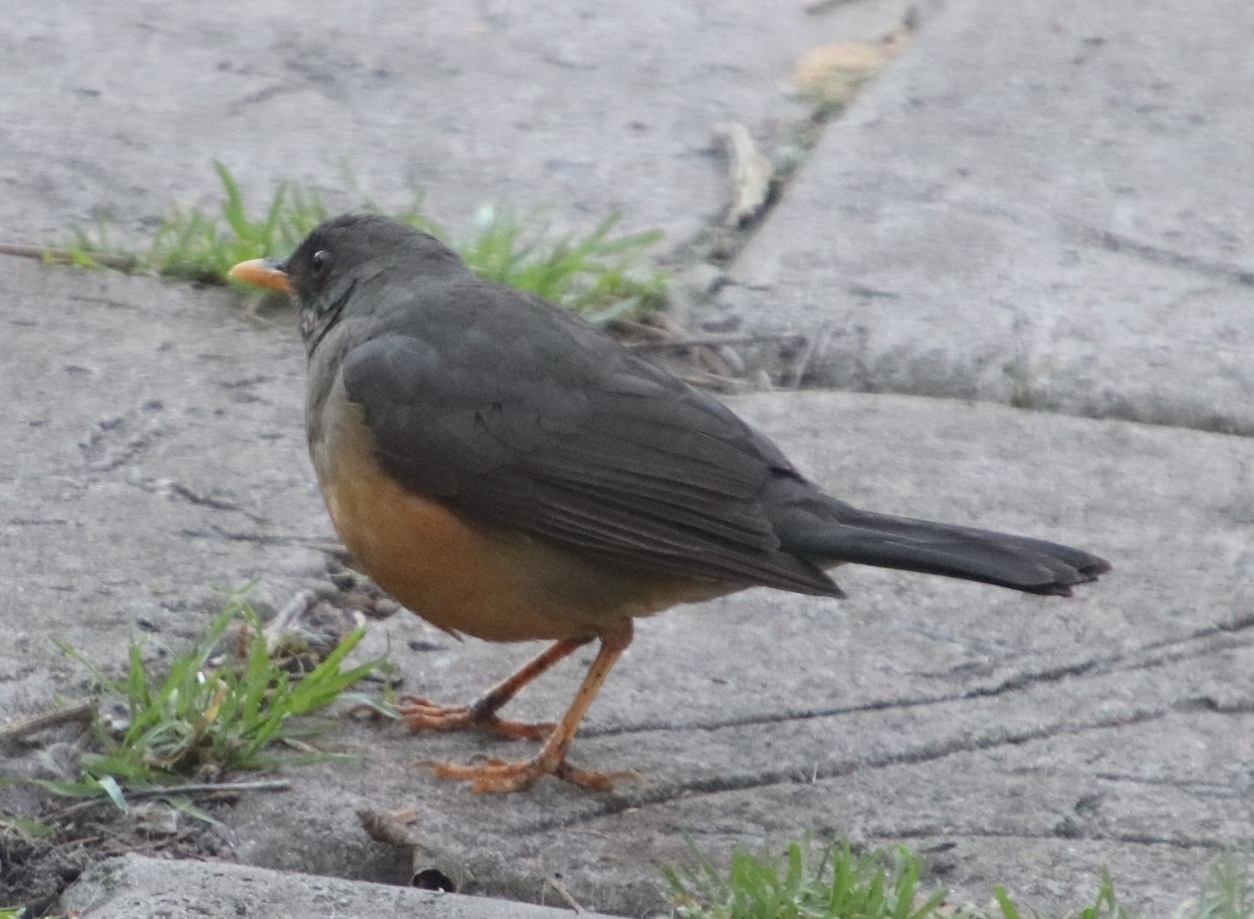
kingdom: Animalia
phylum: Chordata
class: Aves
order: Passeriformes
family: Turdidae
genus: Turdus
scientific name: Turdus olivaceus
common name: Olive thrush
